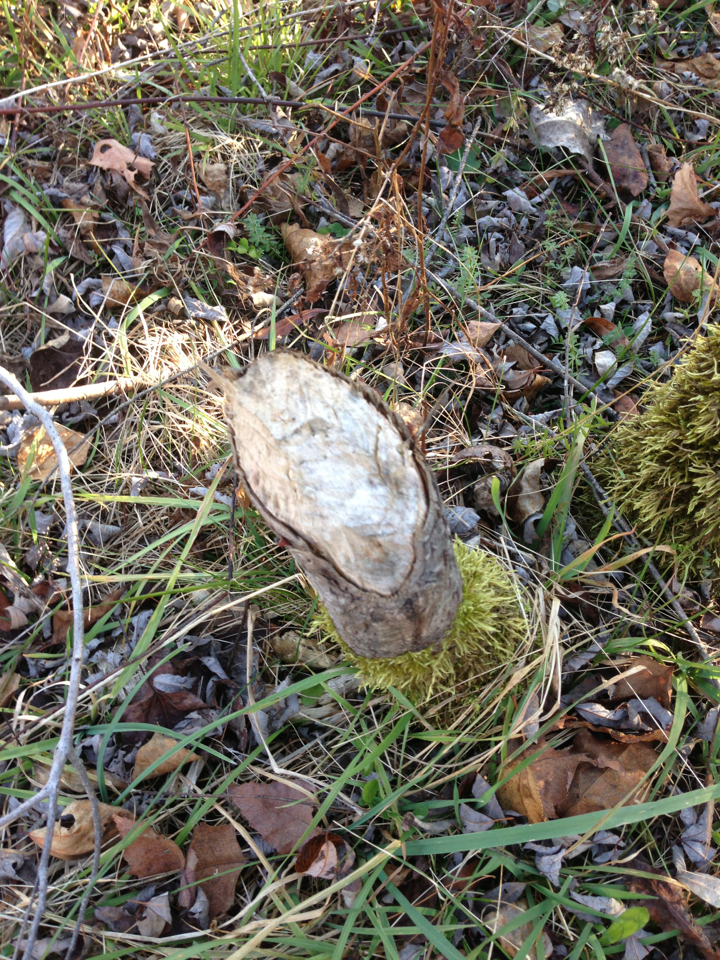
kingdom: Animalia
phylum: Chordata
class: Mammalia
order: Rodentia
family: Castoridae
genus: Castor
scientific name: Castor canadensis
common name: American beaver
